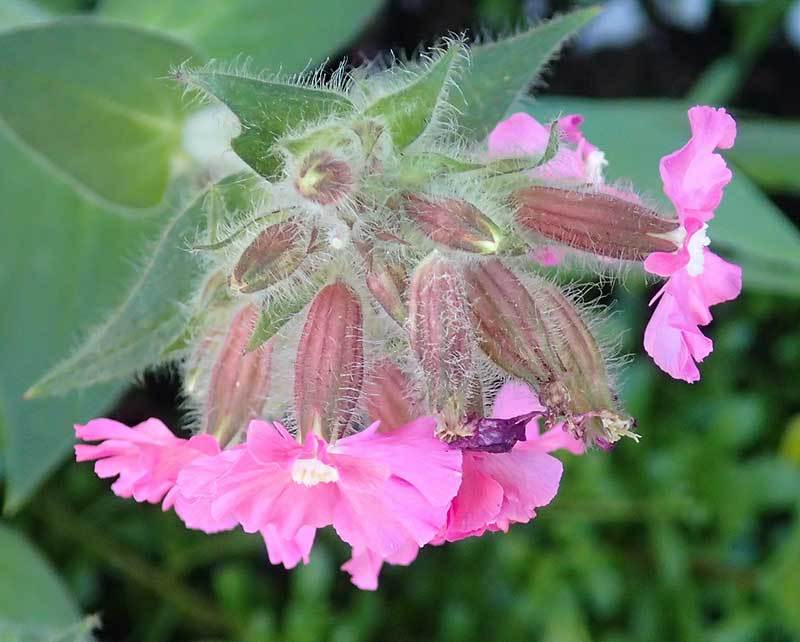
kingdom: Plantae
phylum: Tracheophyta
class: Magnoliopsida
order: Caryophyllales
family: Caryophyllaceae
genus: Silene
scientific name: Silene dioica
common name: Red campion
